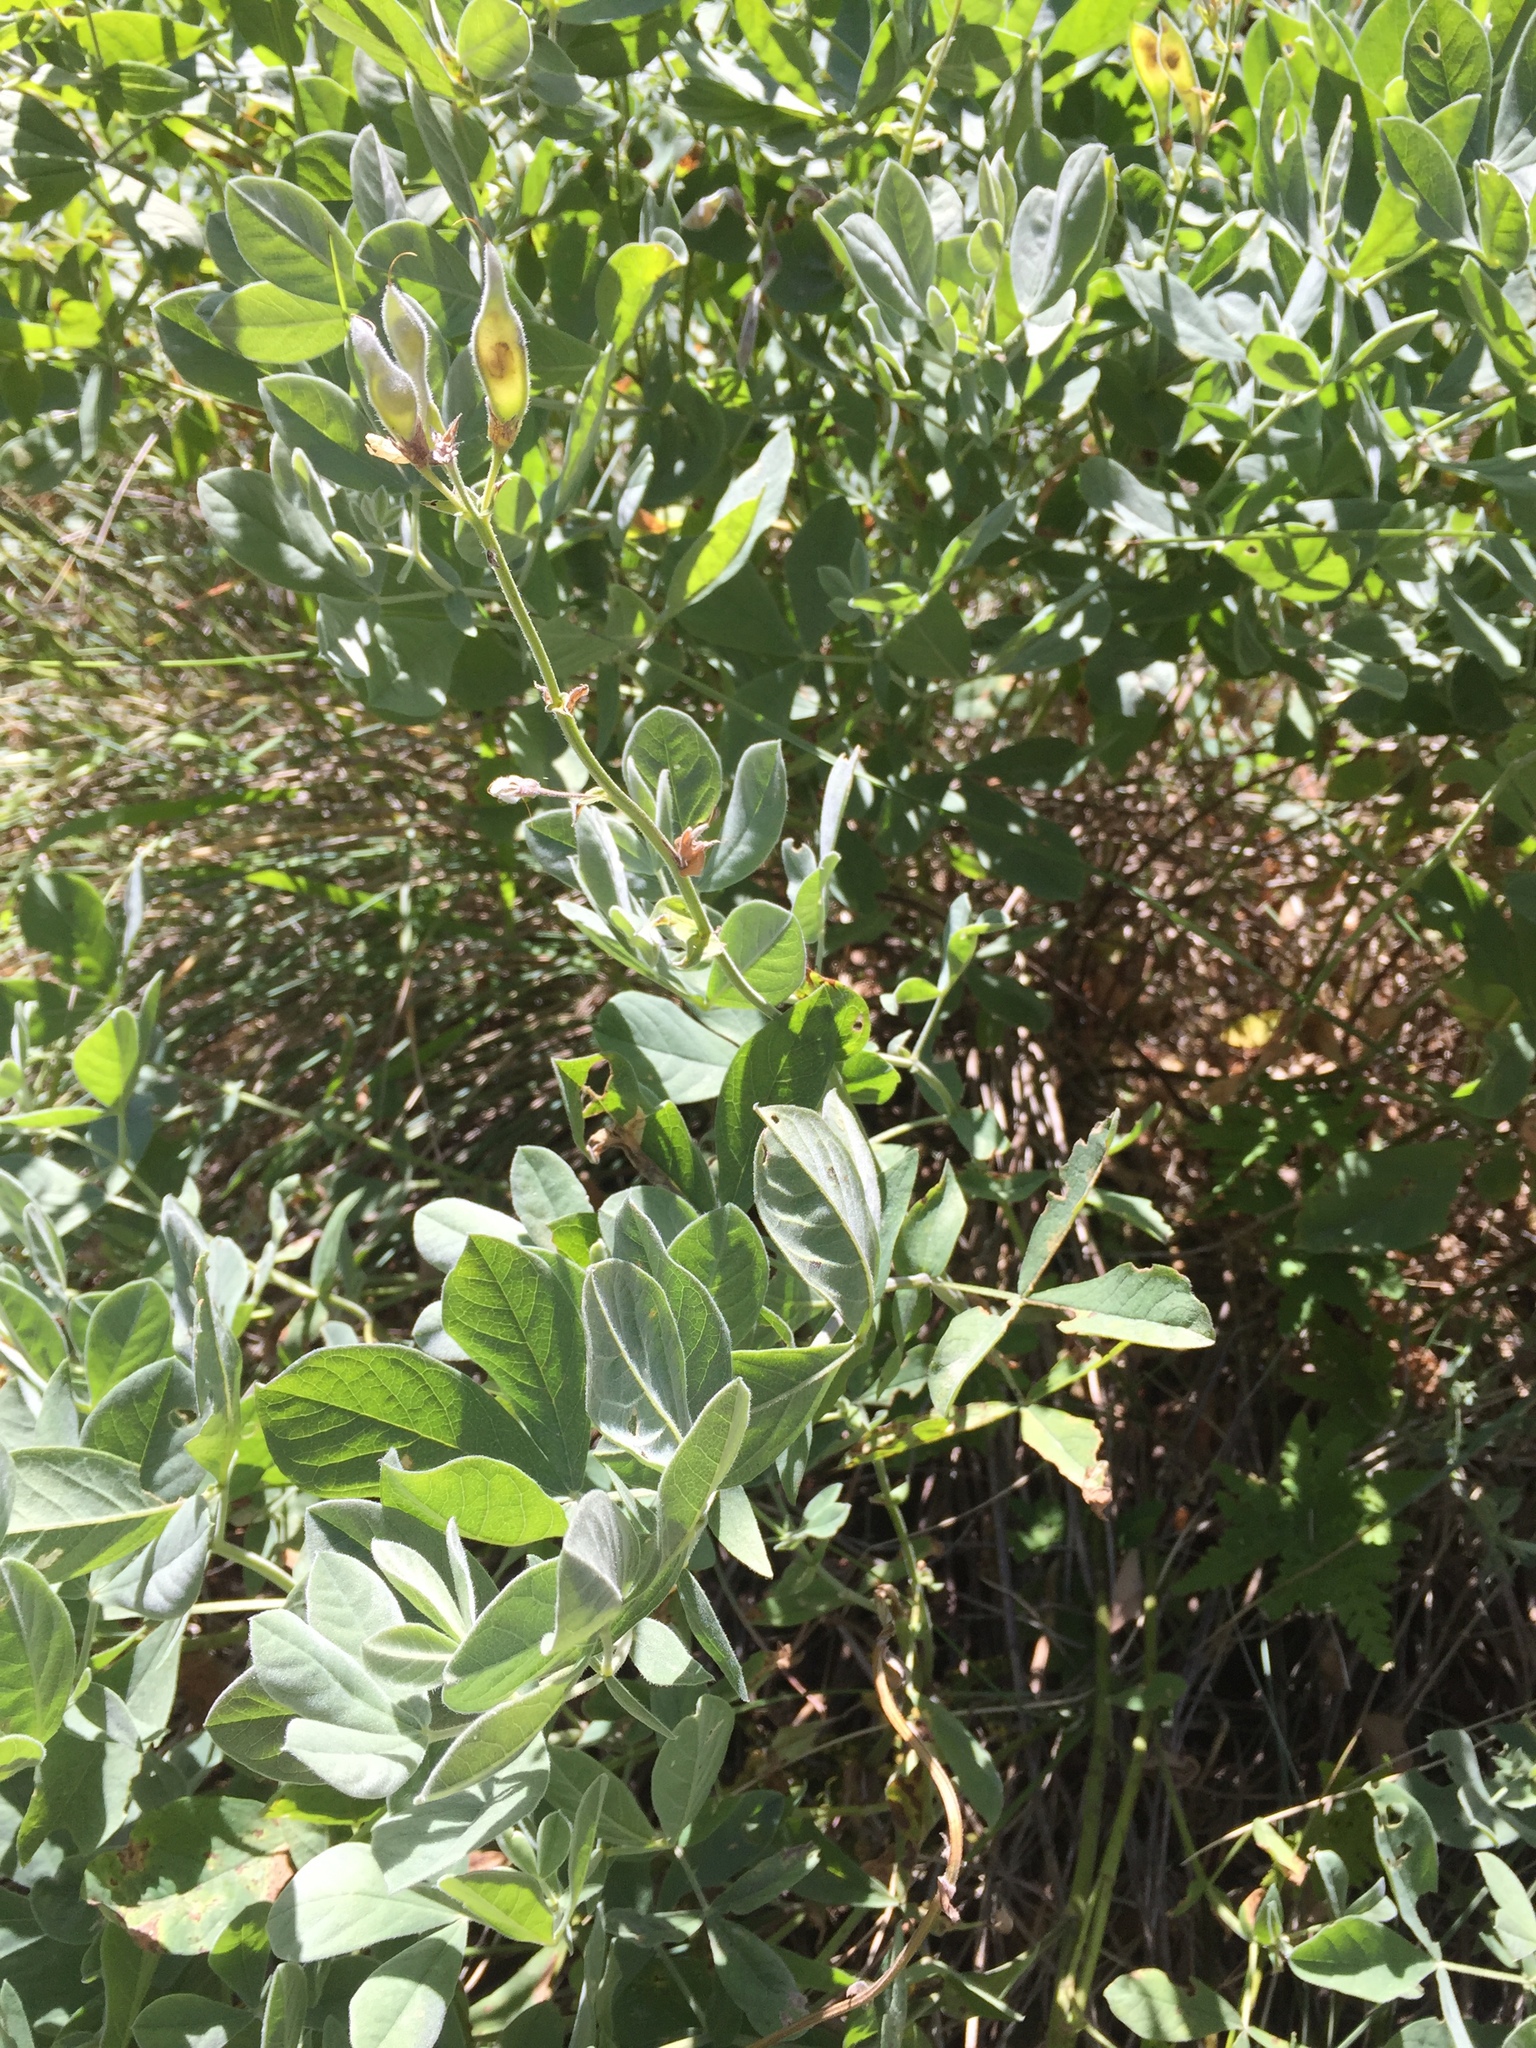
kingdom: Plantae
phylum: Tracheophyta
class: Magnoliopsida
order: Fabales
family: Fabaceae
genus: Thermopsis
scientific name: Thermopsis californica
